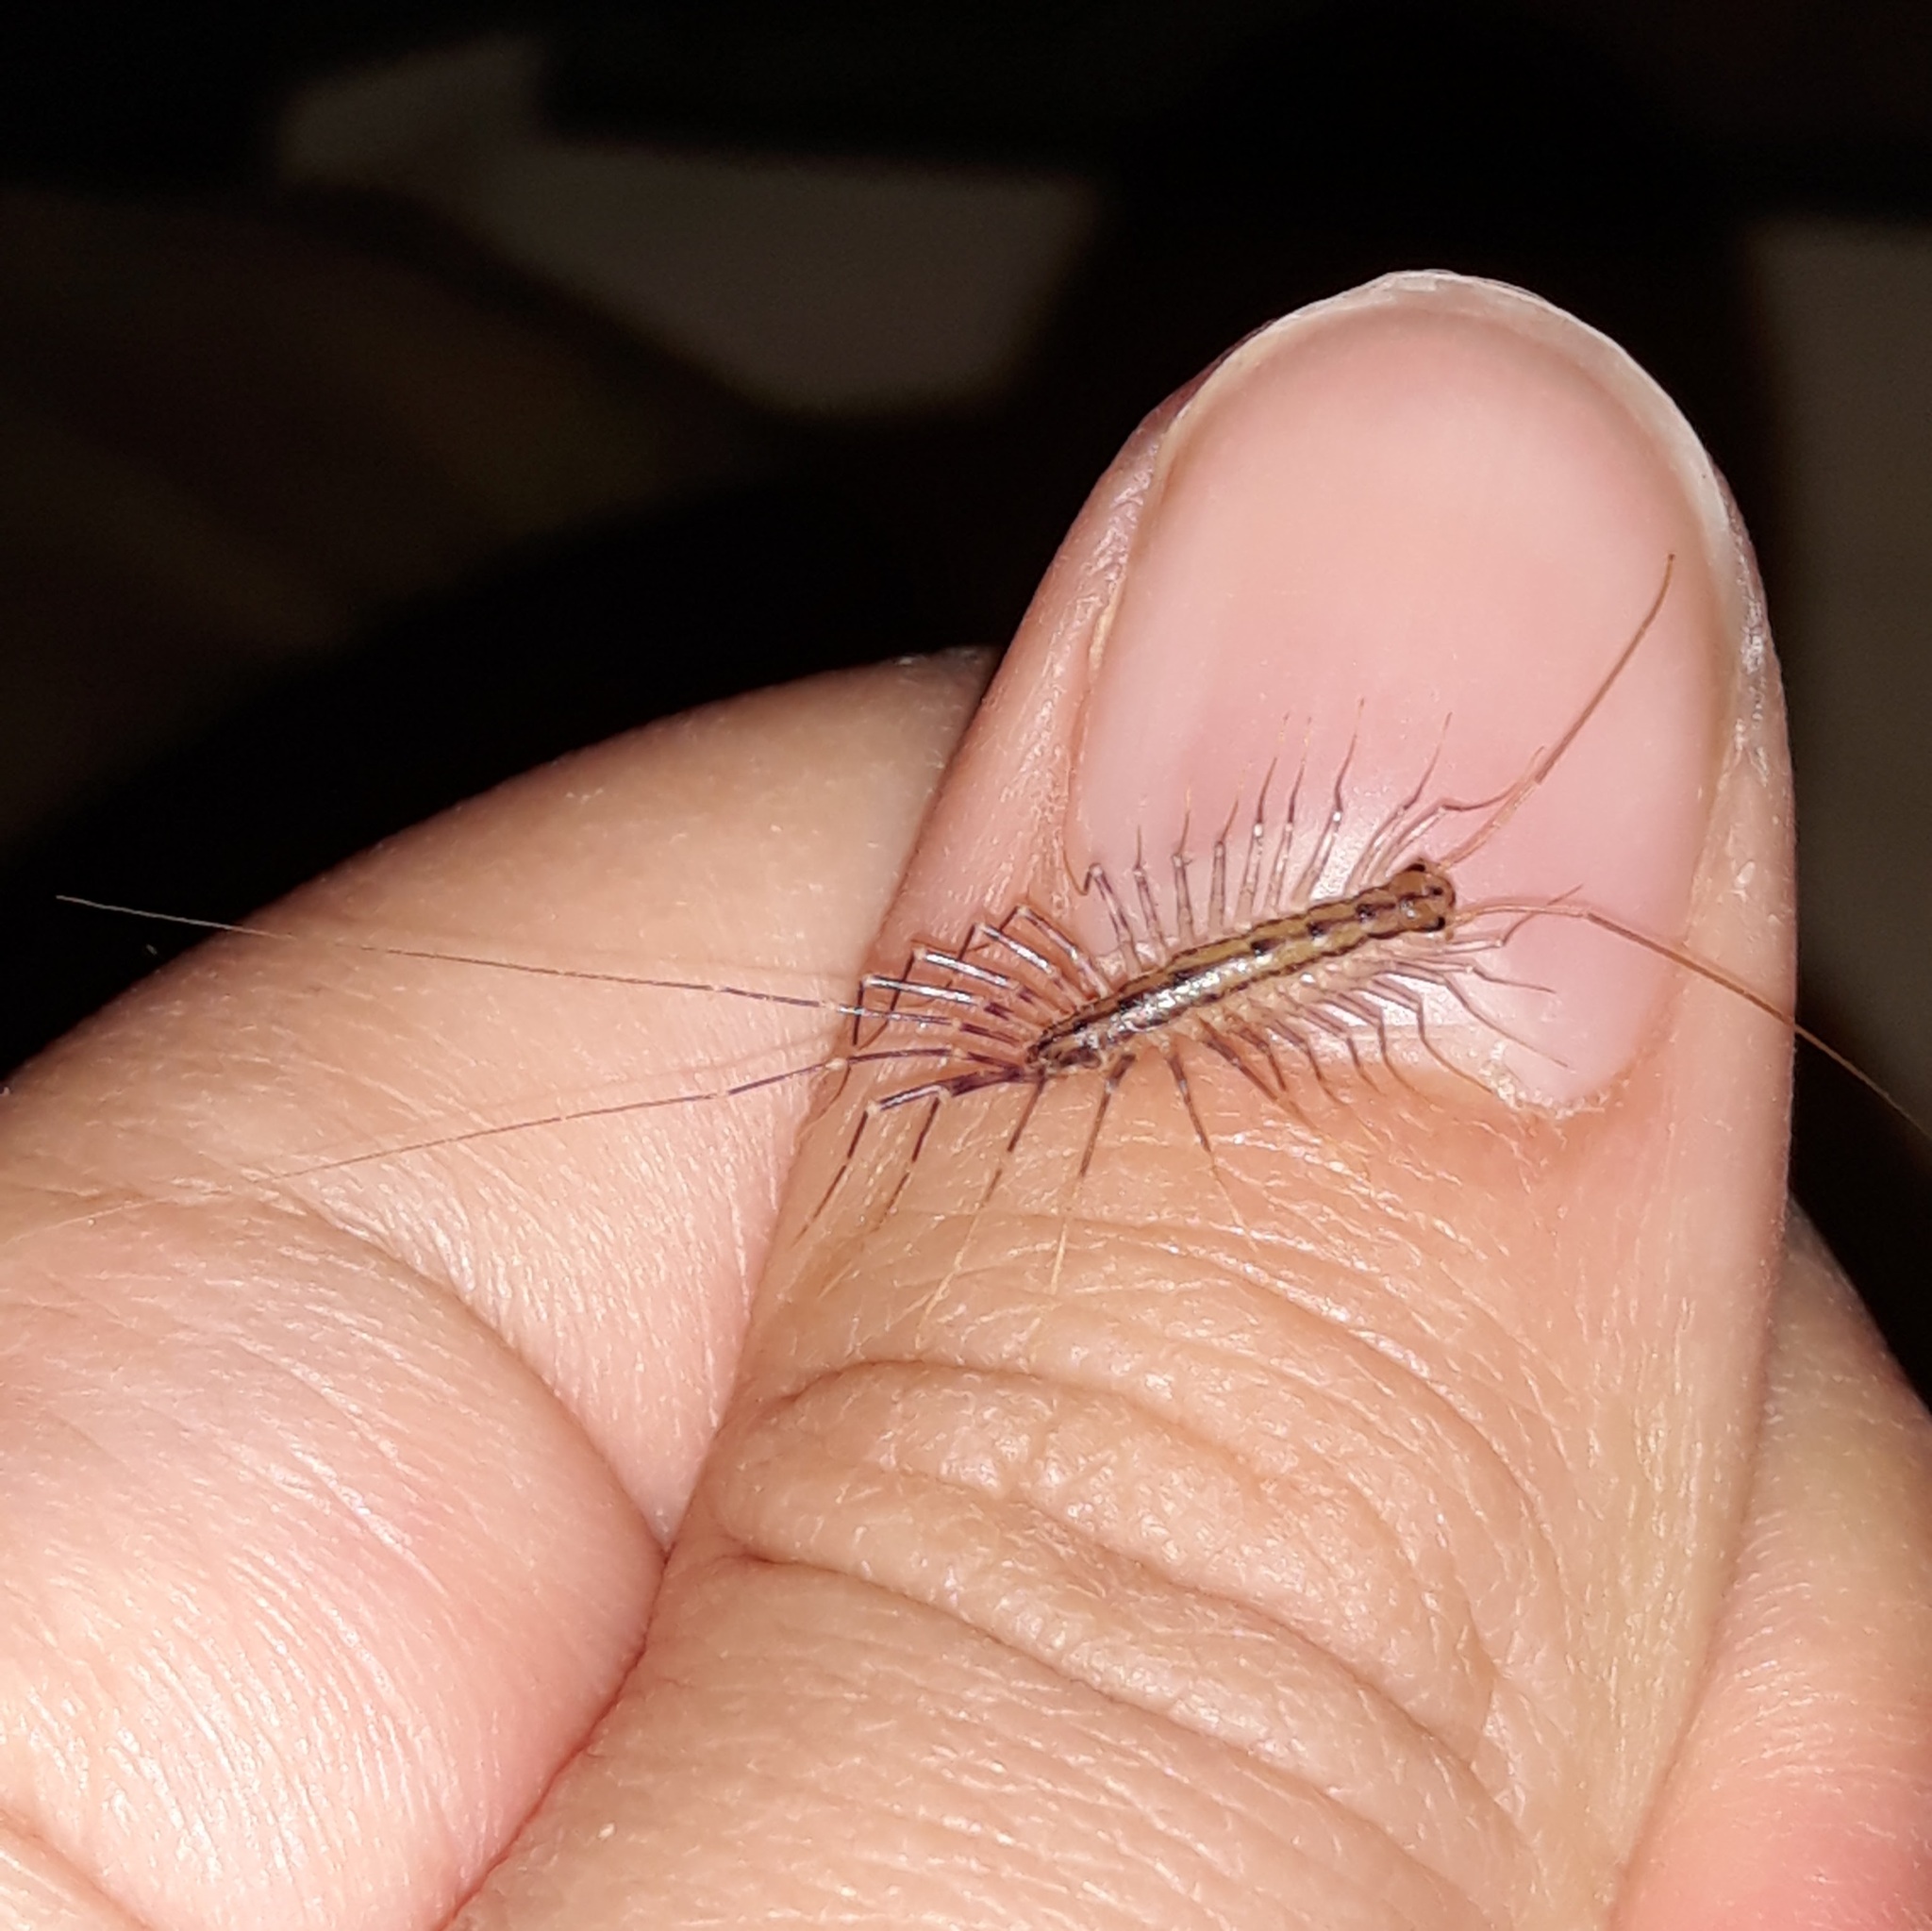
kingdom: Animalia
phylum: Arthropoda
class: Chilopoda
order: Scutigeromorpha
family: Scutigeridae
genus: Scutigera
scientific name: Scutigera coleoptrata
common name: House centipede
